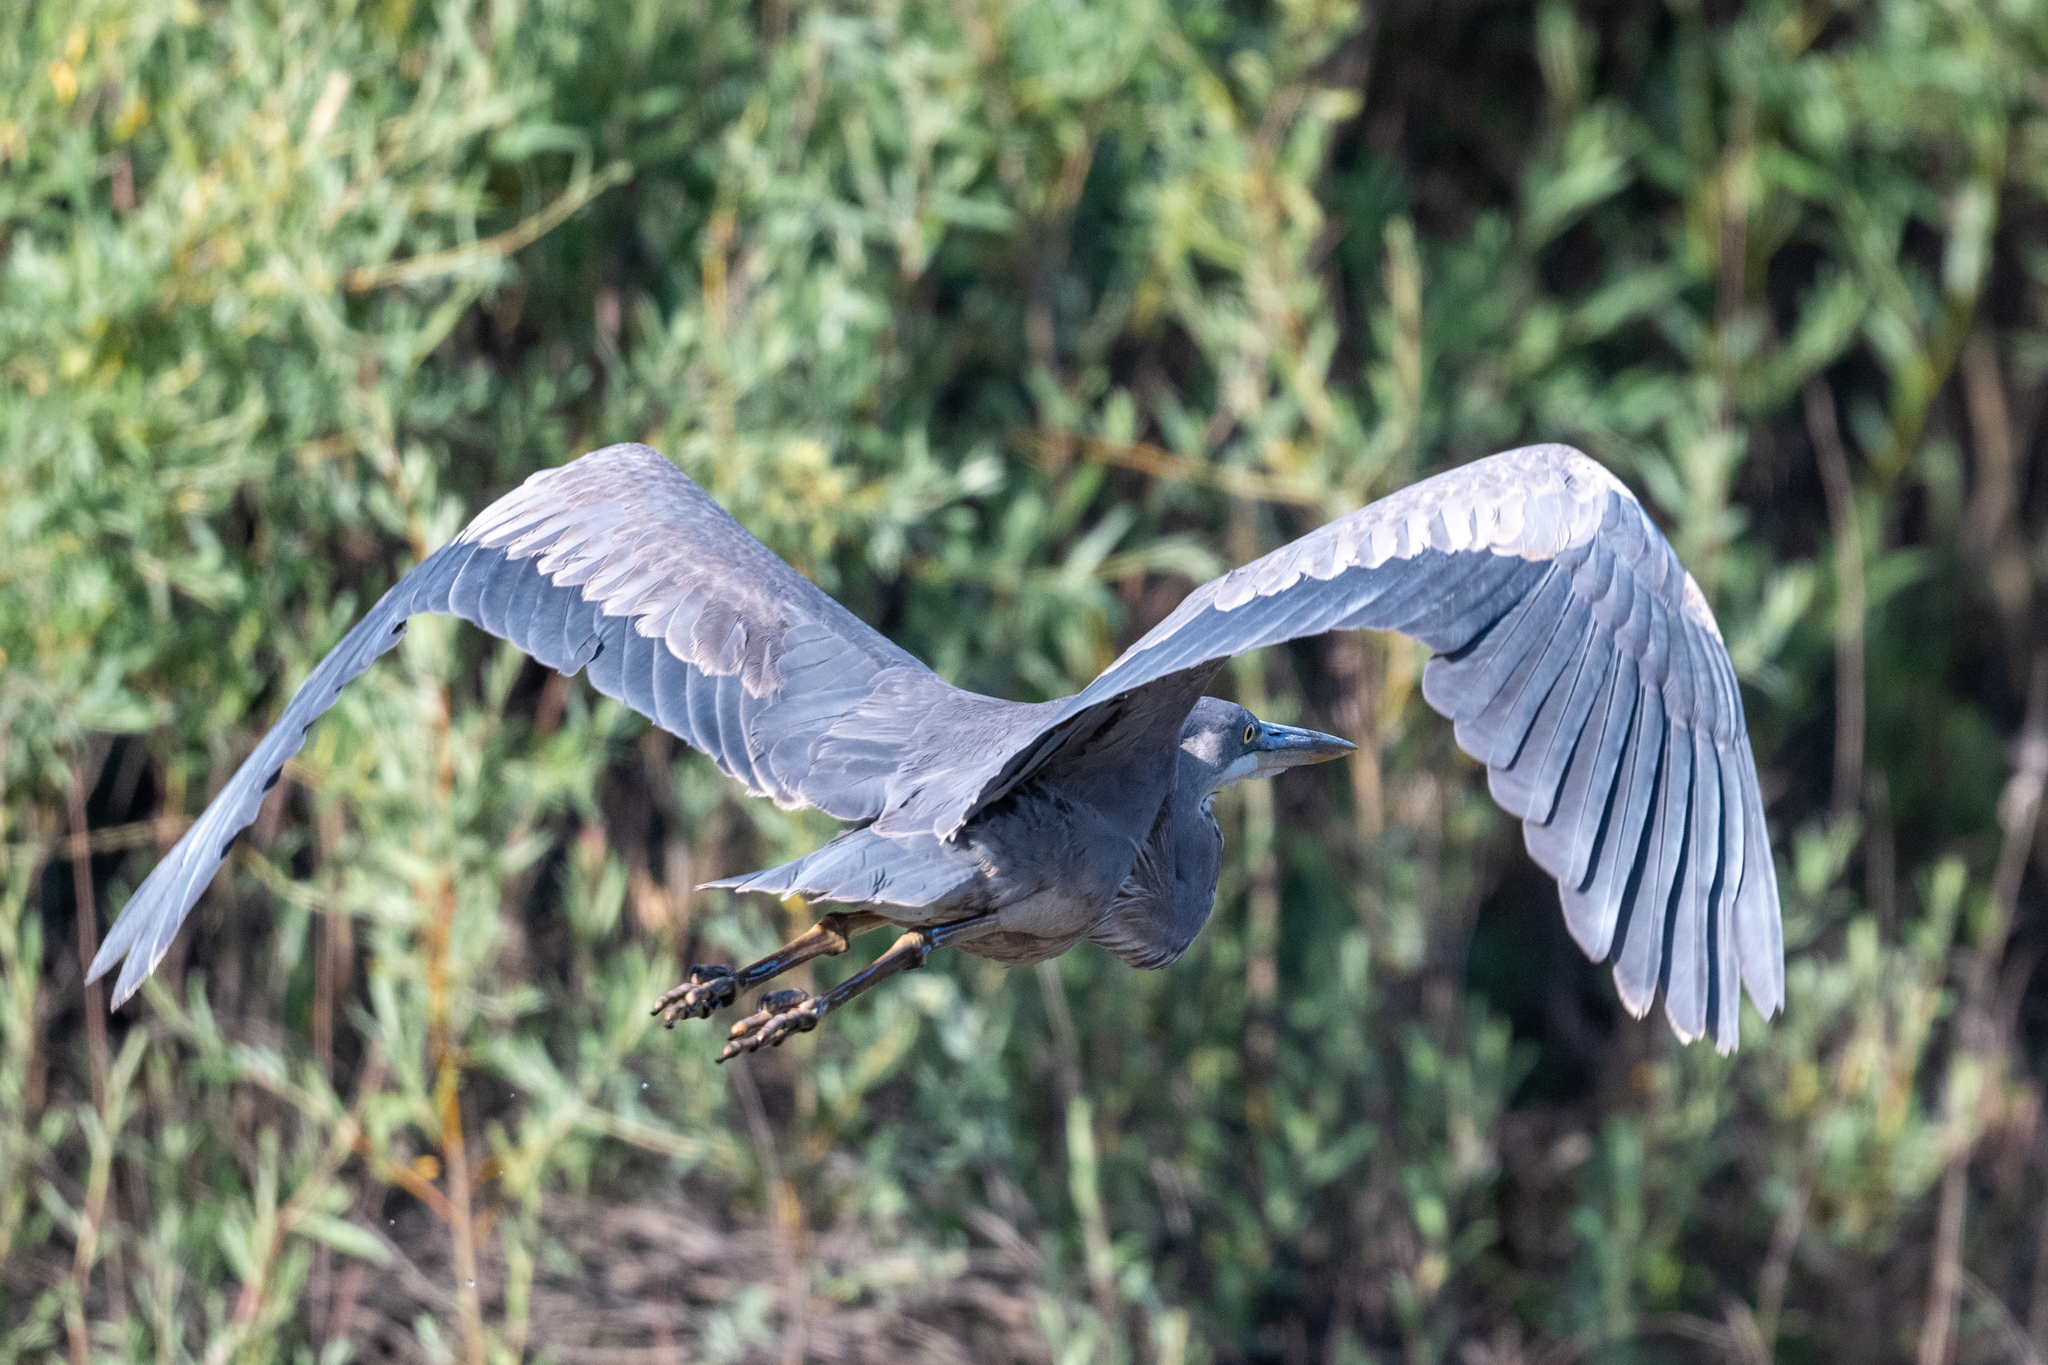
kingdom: Animalia
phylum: Chordata
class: Aves
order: Pelecaniformes
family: Ardeidae
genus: Ardea
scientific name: Ardea herodias
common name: Great blue heron
